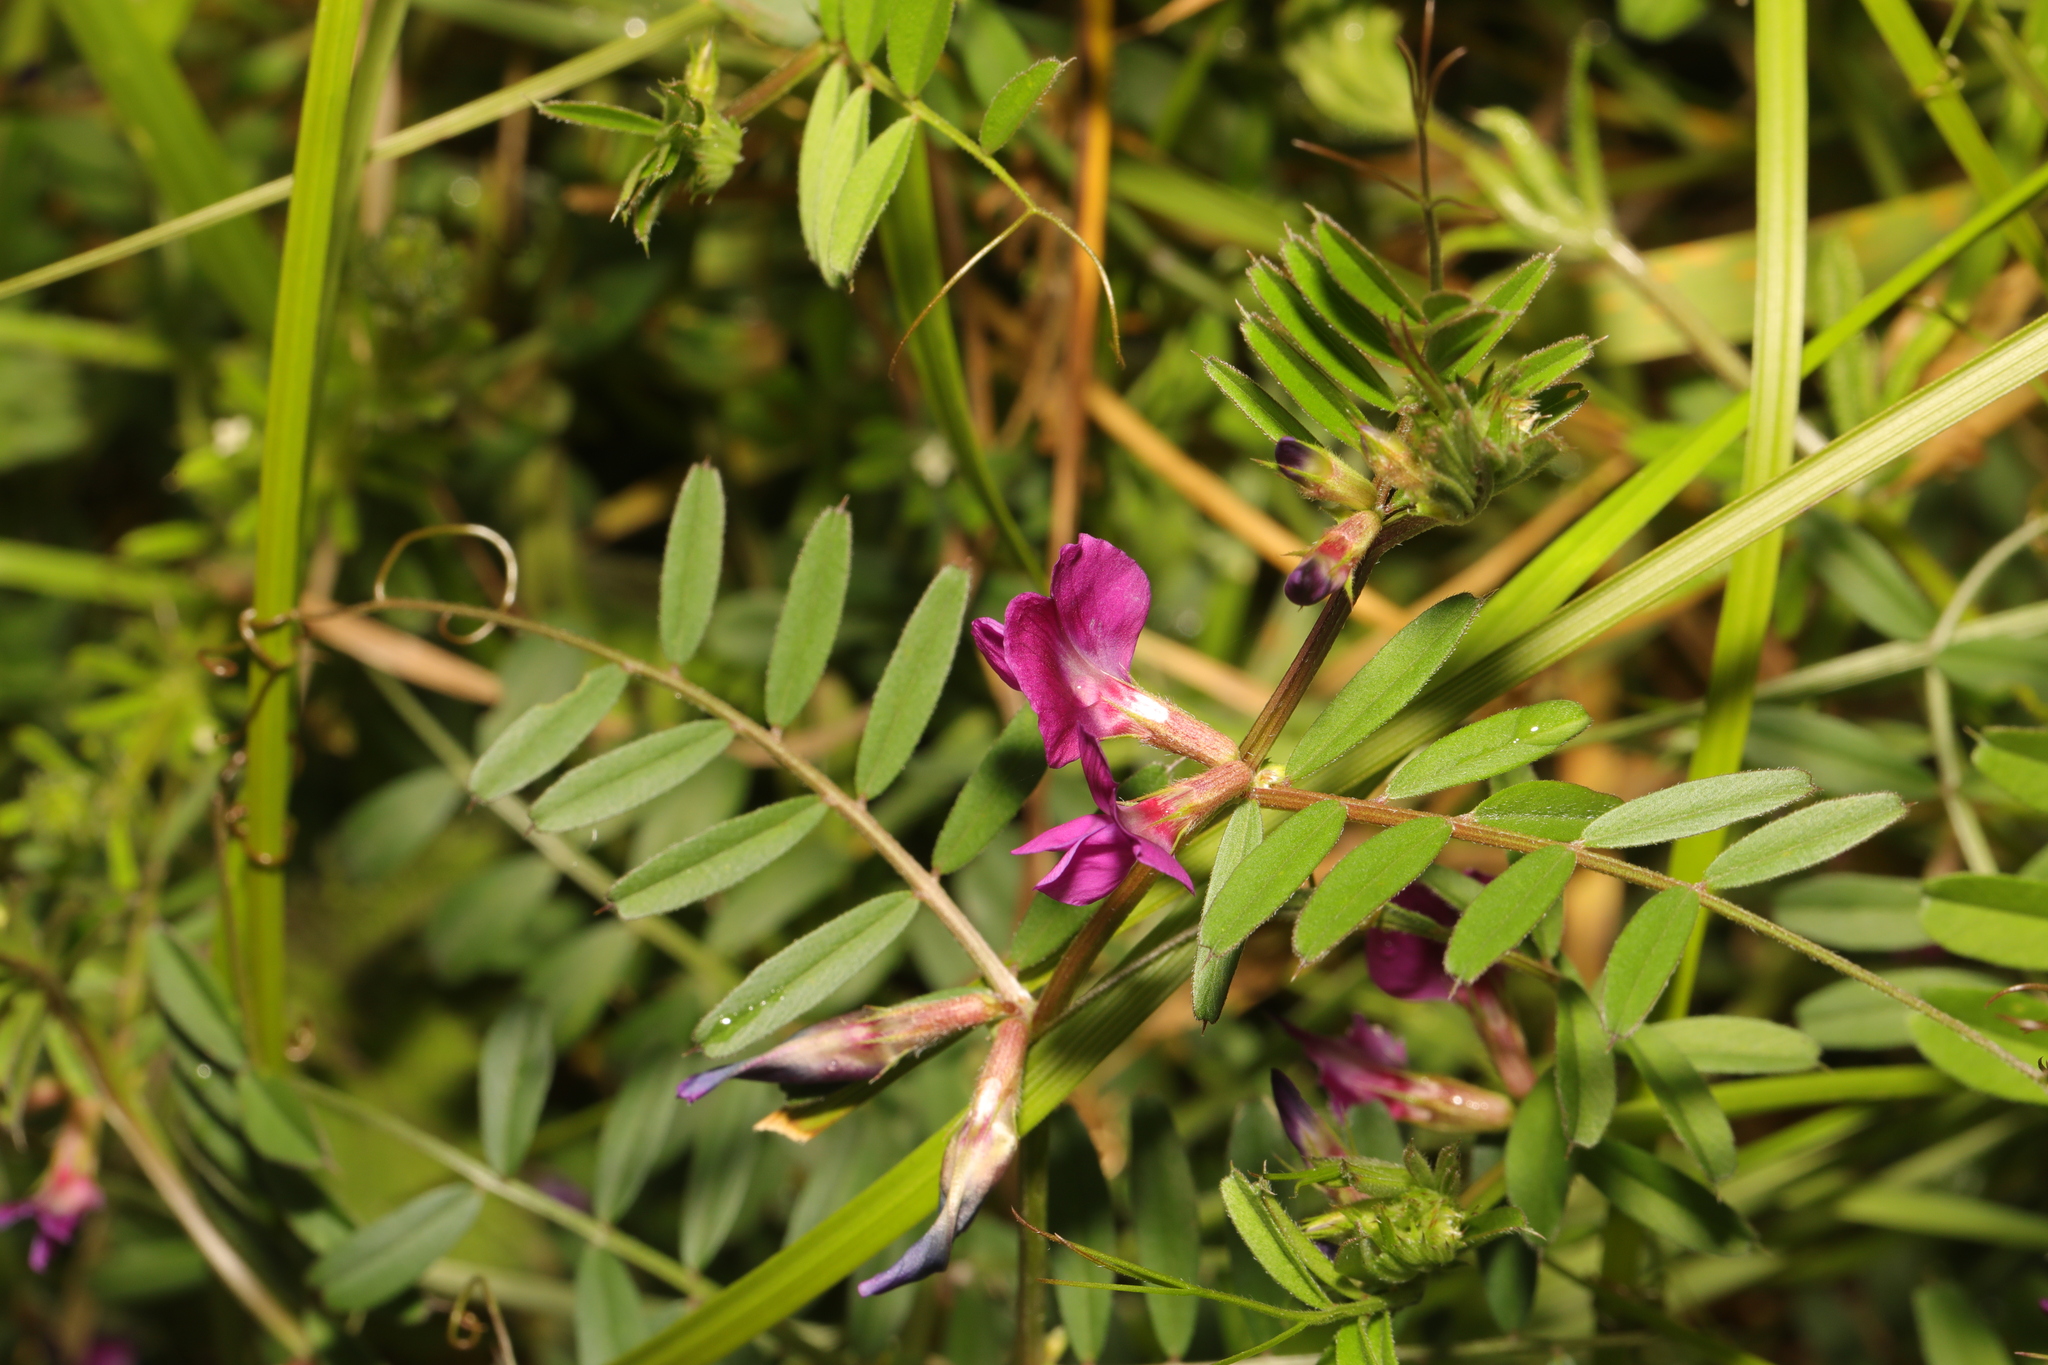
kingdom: Plantae
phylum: Tracheophyta
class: Magnoliopsida
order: Fabales
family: Fabaceae
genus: Vicia
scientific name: Vicia sativa
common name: Garden vetch
